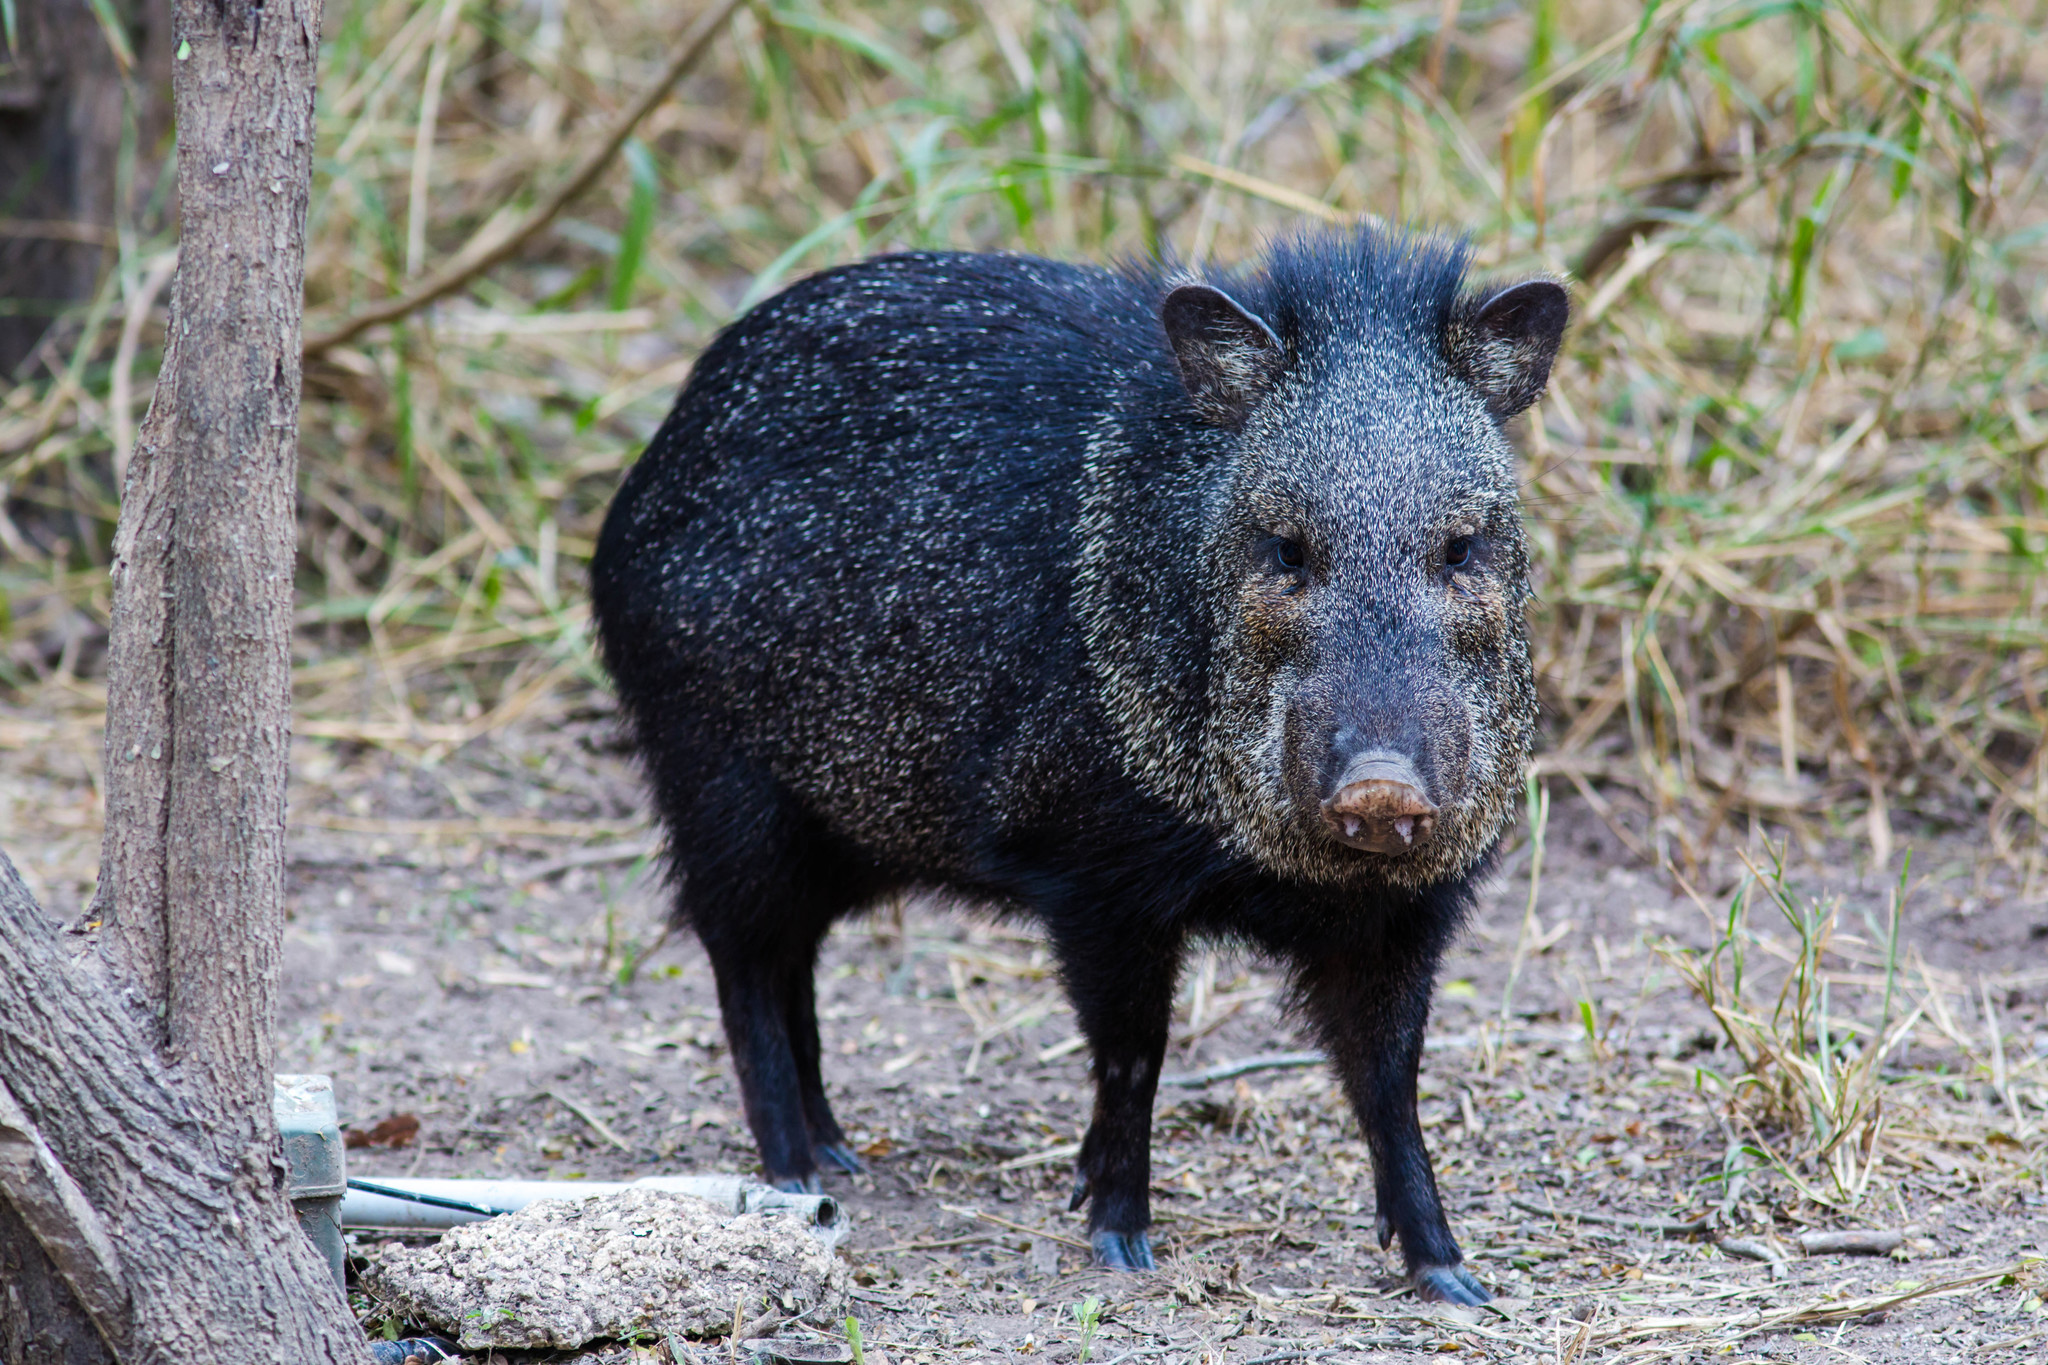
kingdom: Animalia
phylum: Chordata
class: Mammalia
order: Artiodactyla
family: Tayassuidae
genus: Pecari
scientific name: Pecari tajacu
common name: Collared peccary
